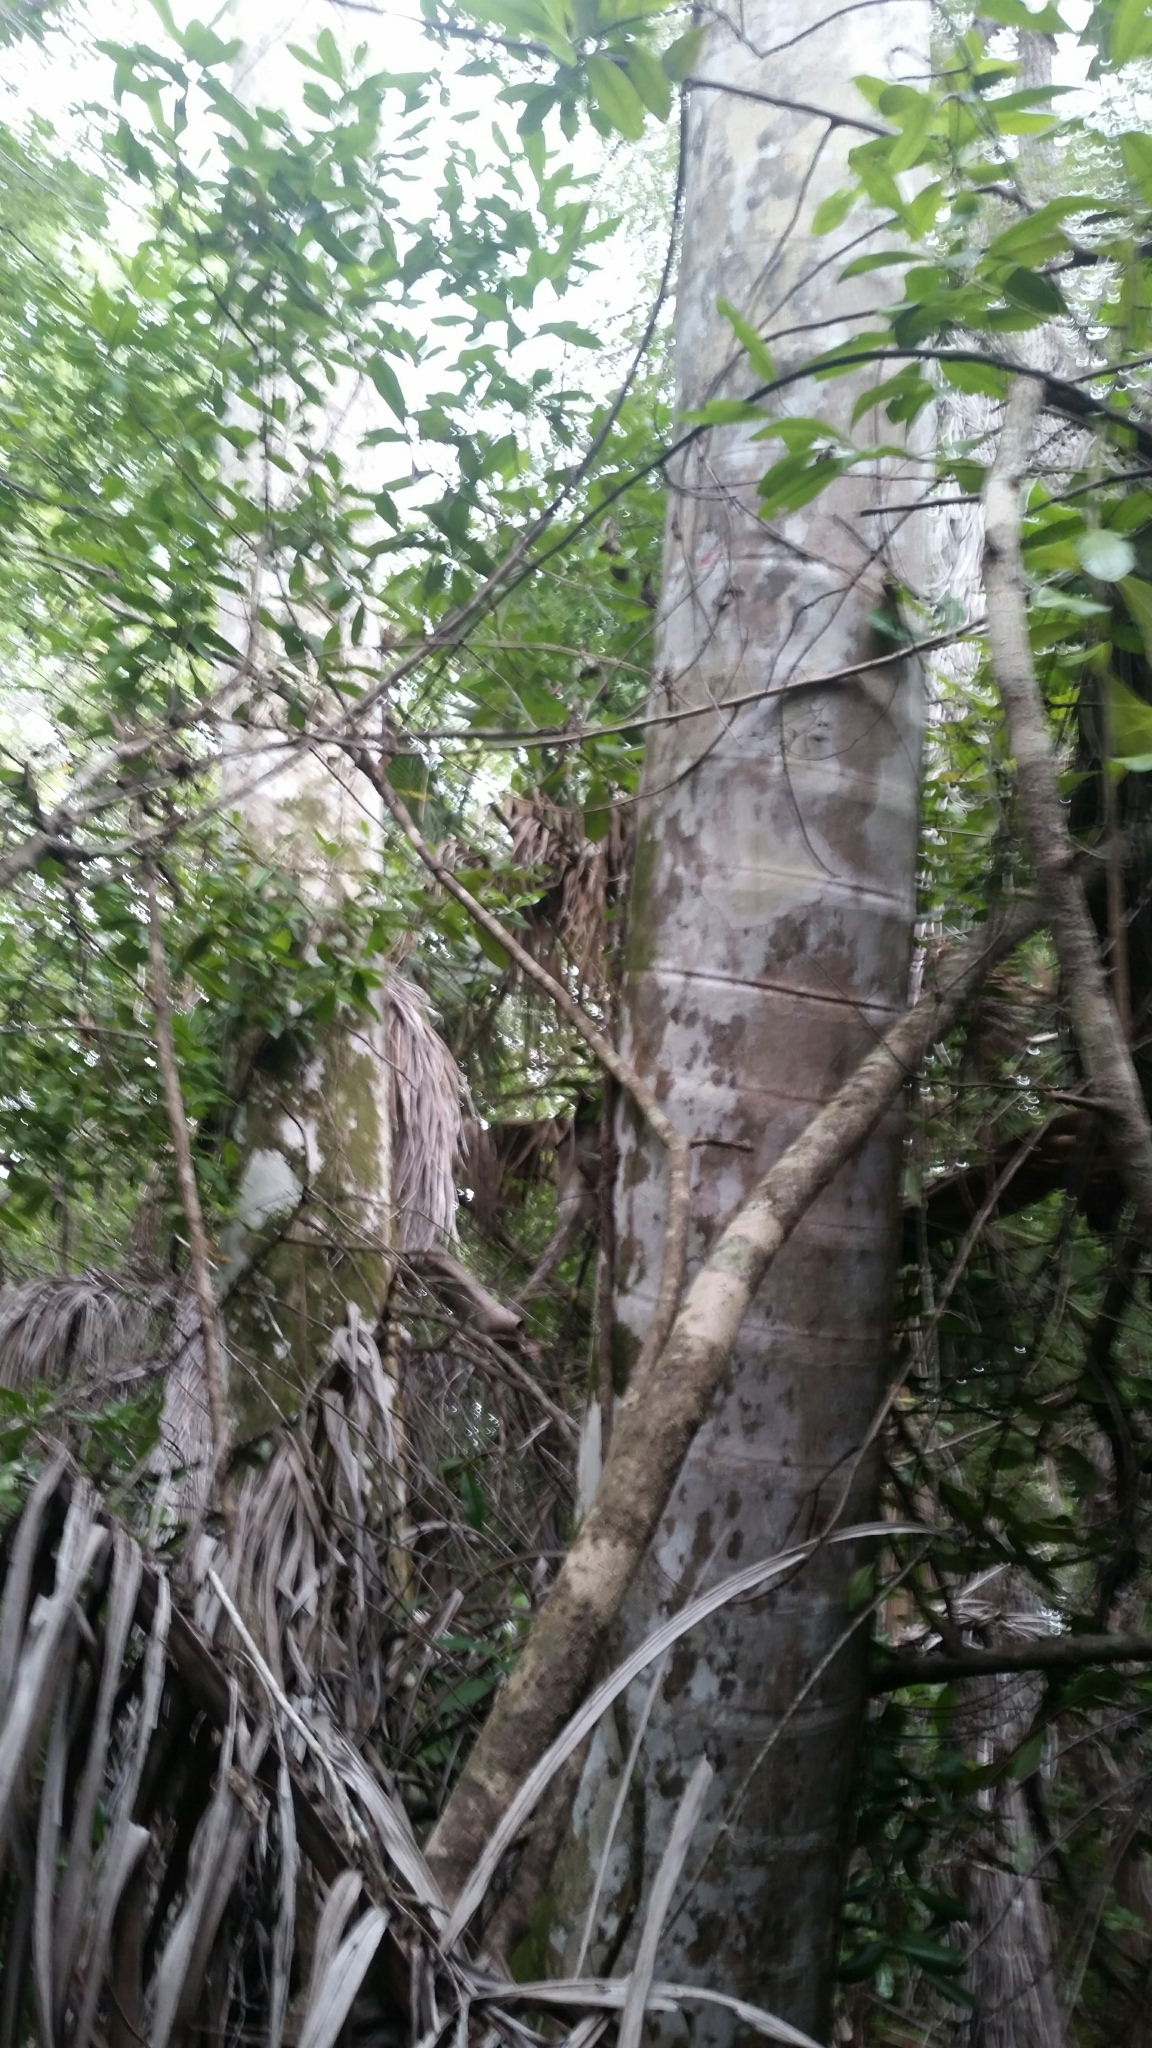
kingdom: Plantae
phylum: Tracheophyta
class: Liliopsida
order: Arecales
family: Arecaceae
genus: Roystonea
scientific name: Roystonea regia
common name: Florida royal palm
